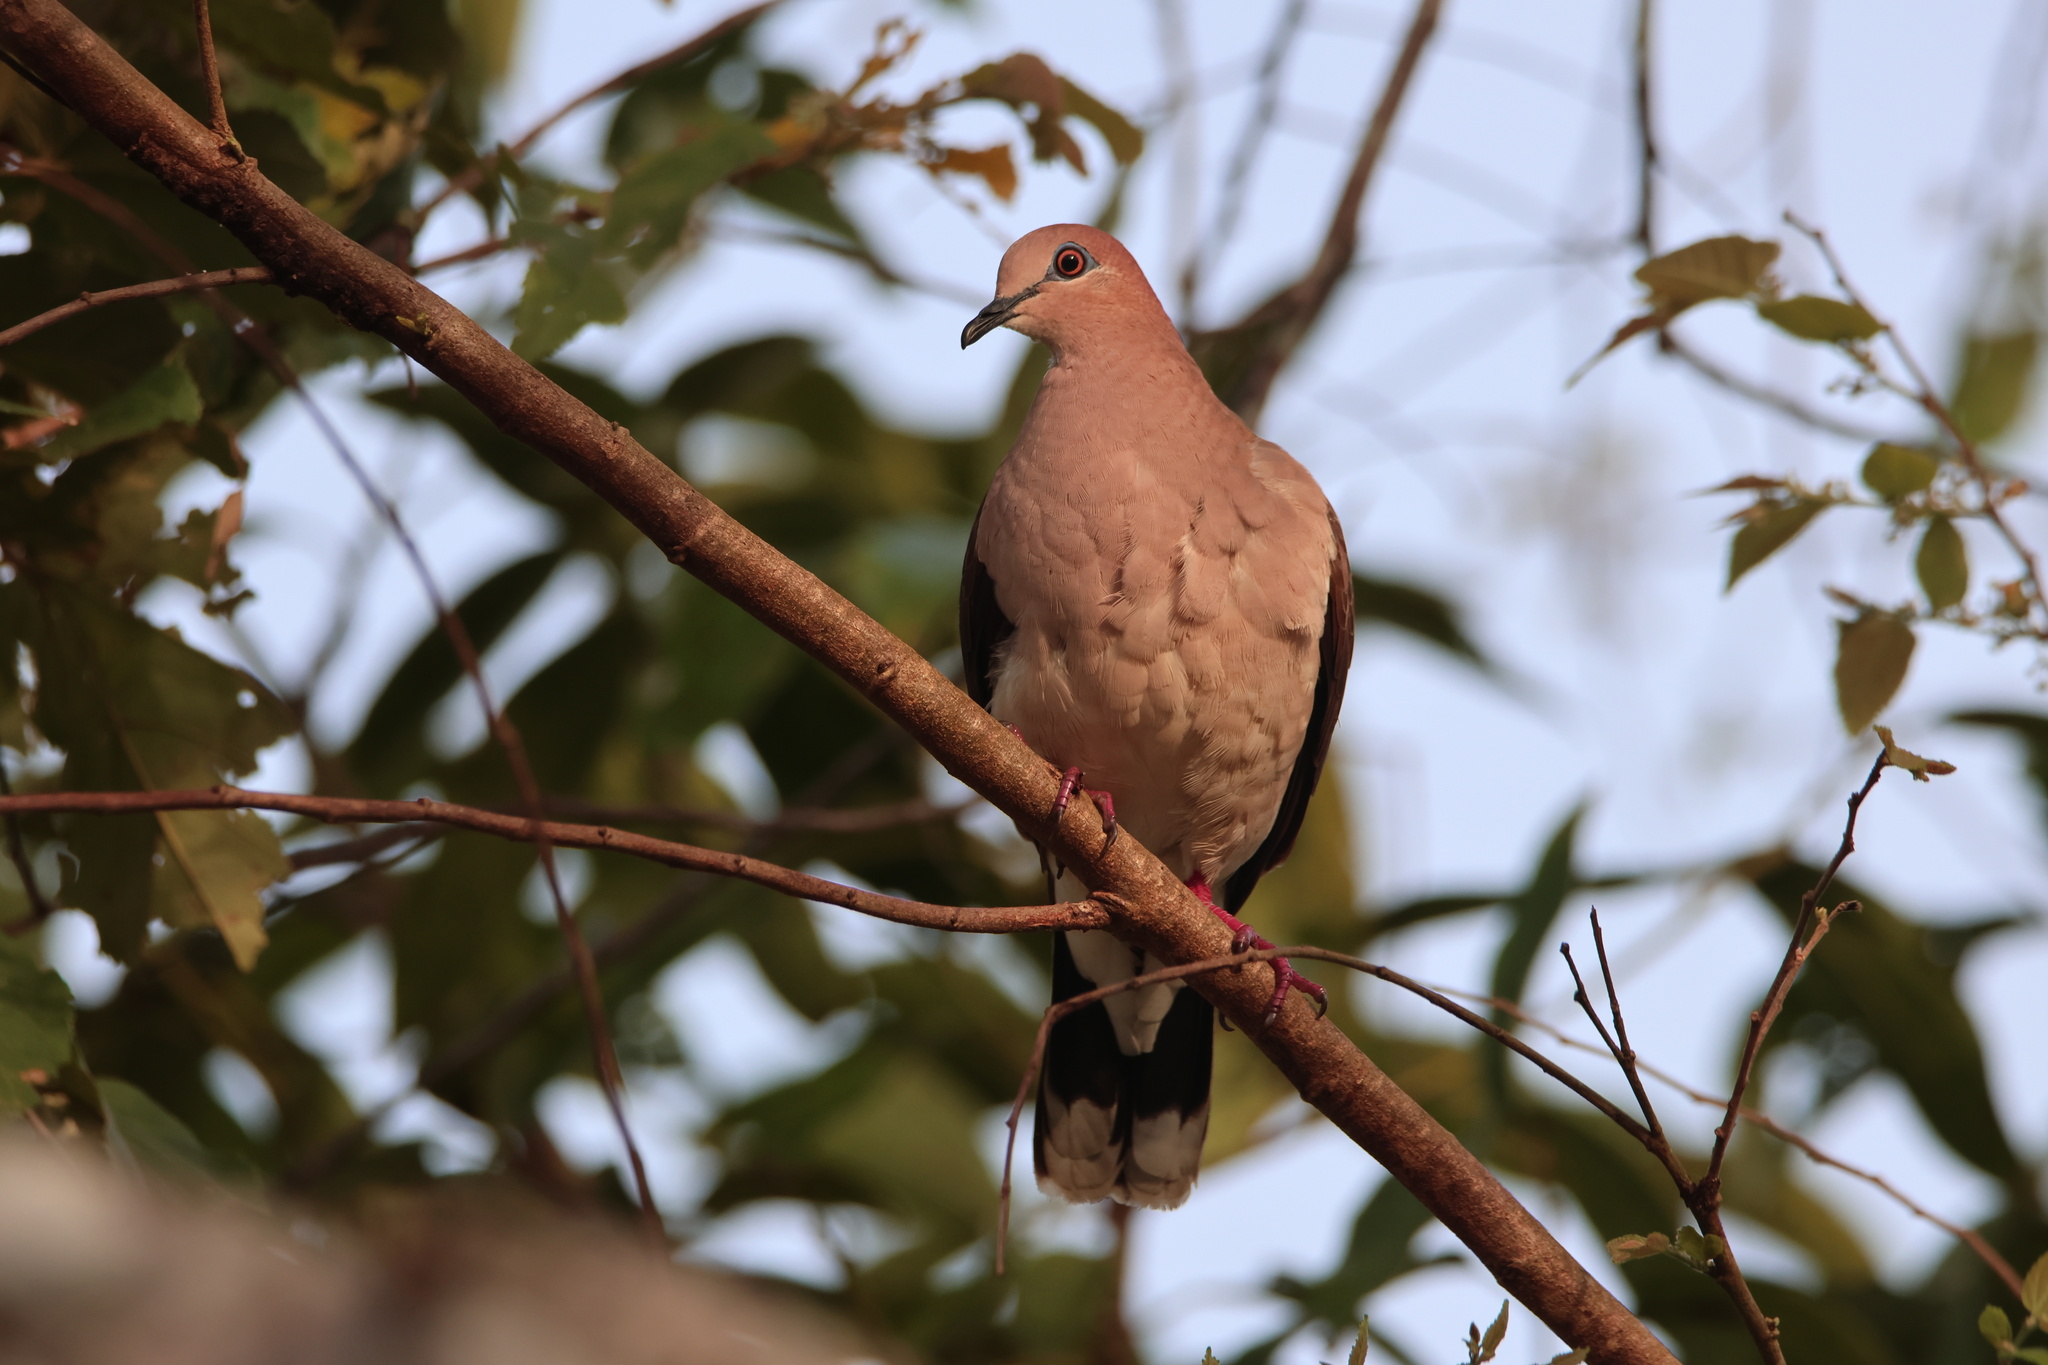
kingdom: Animalia
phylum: Chordata
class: Aves
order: Columbiformes
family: Columbidae
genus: Leptotila
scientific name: Leptotila verreauxi
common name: White-tipped dove
